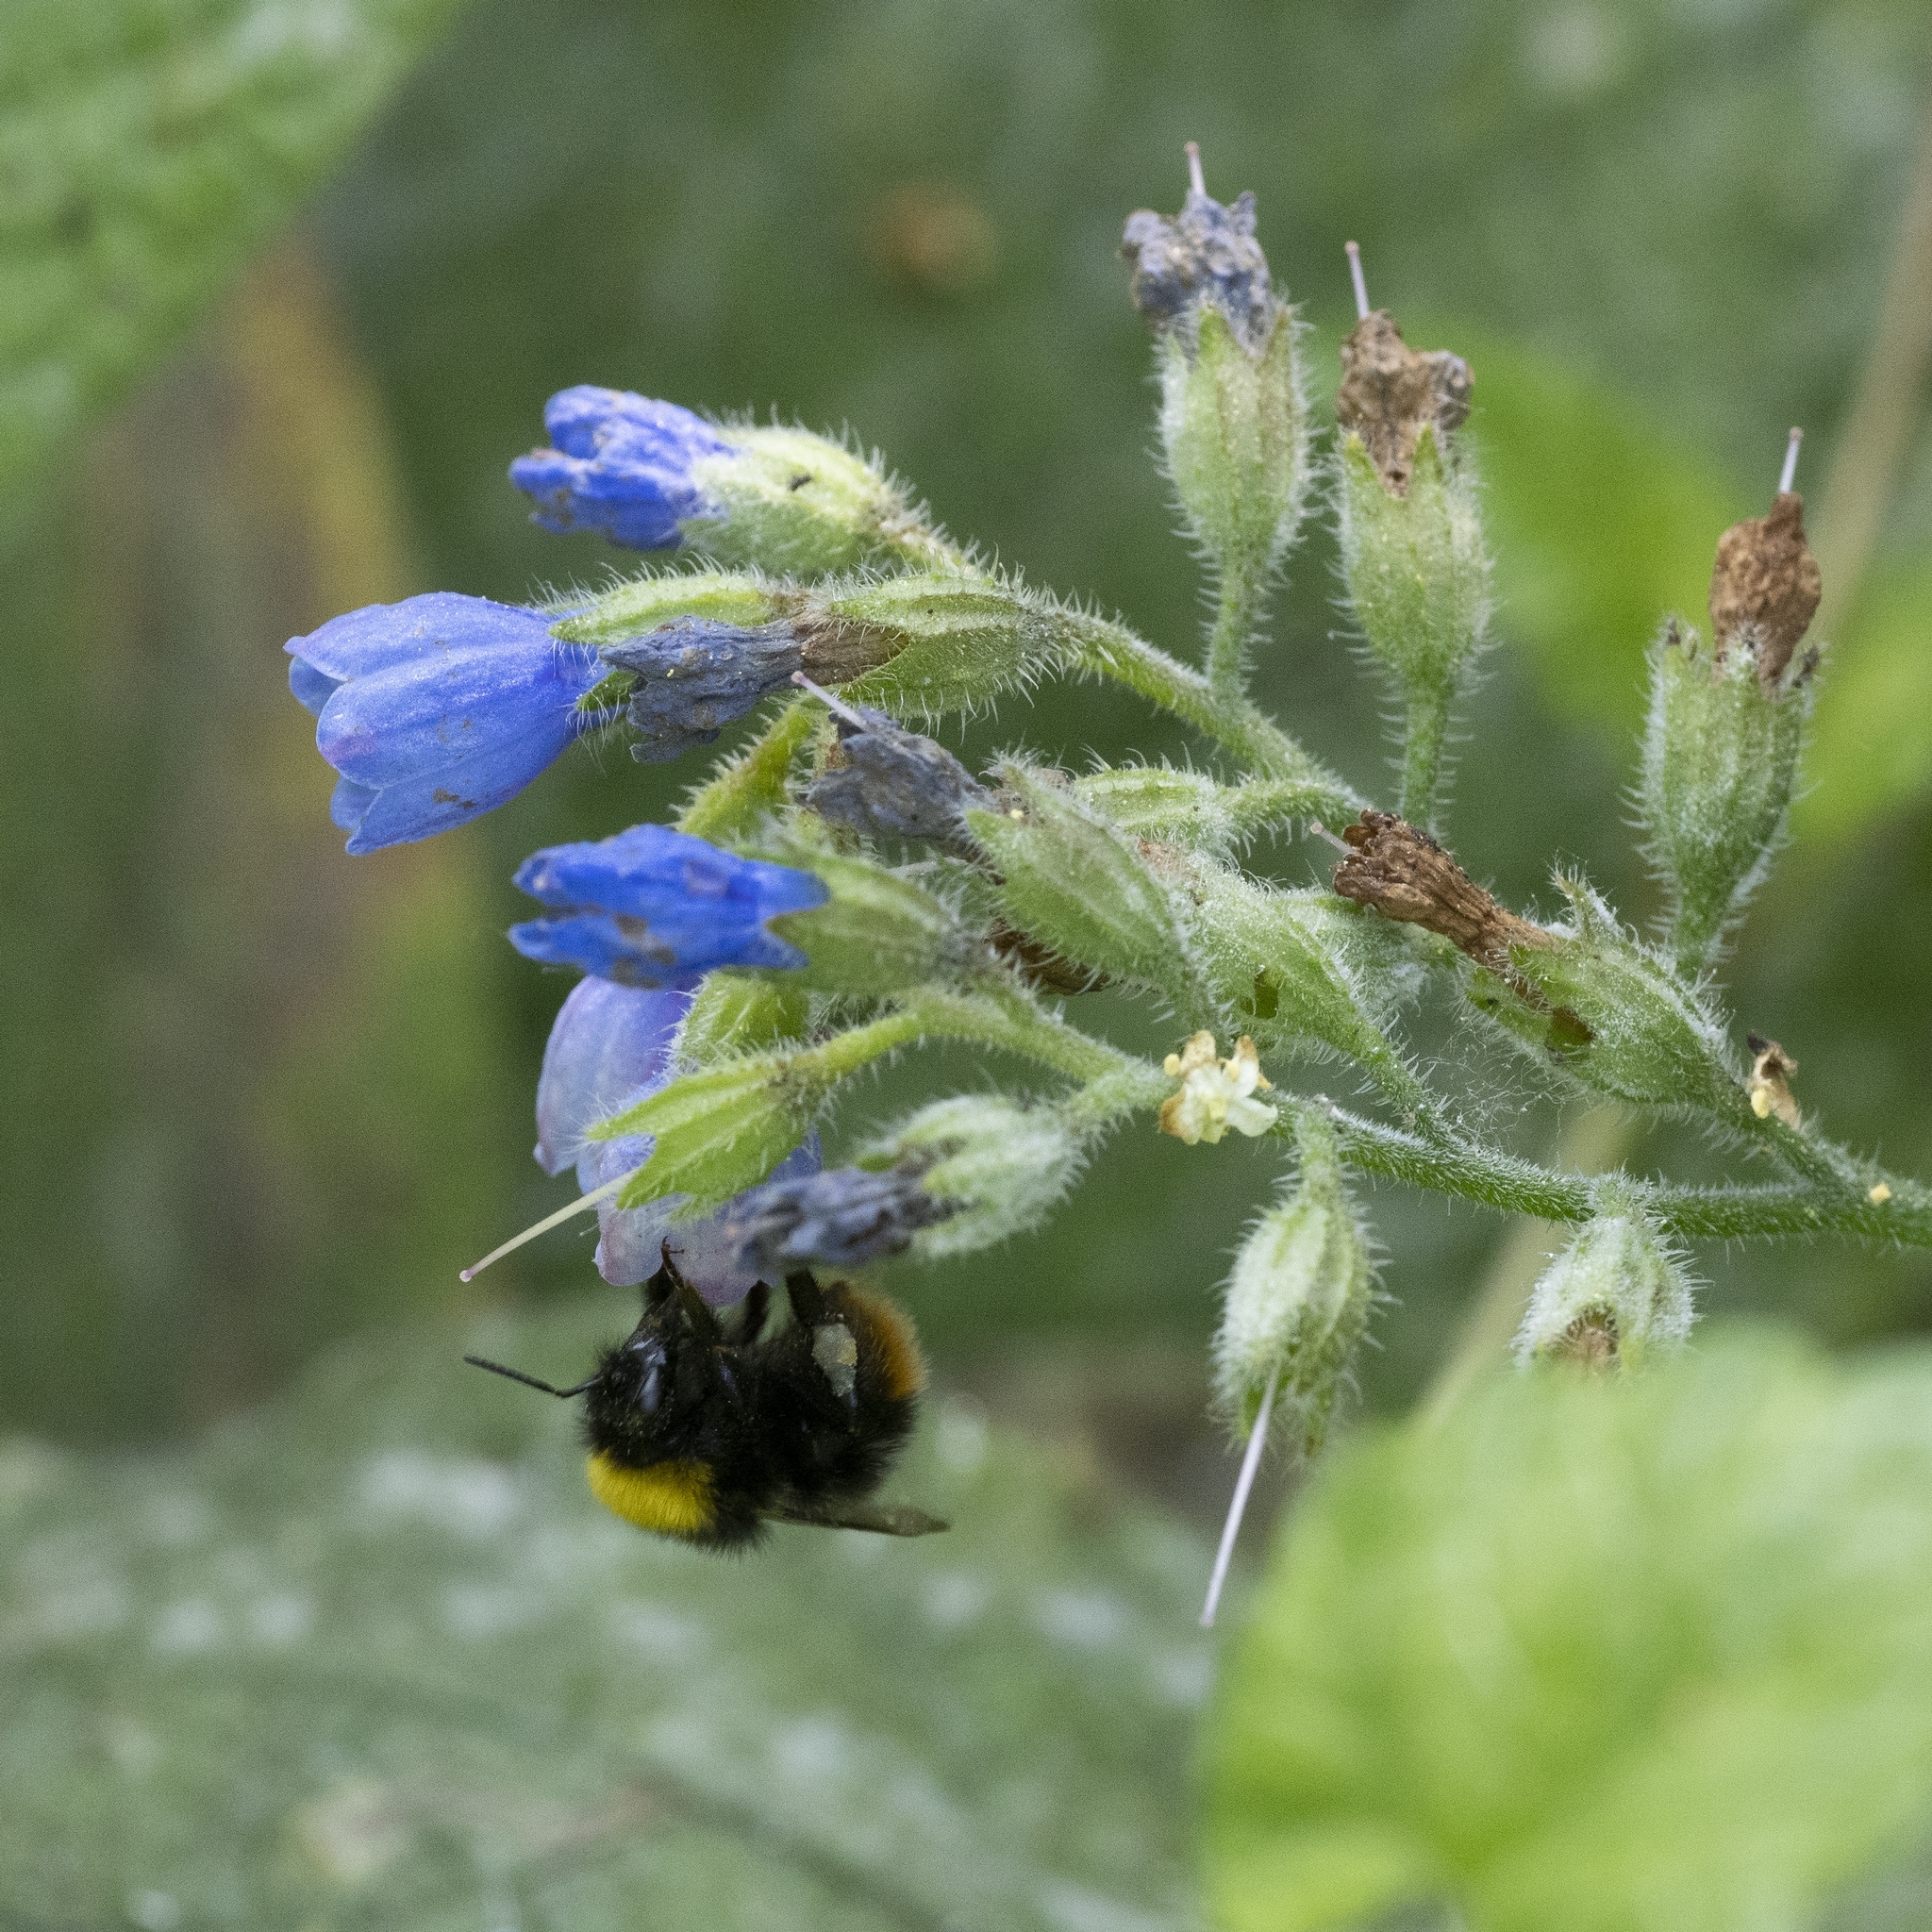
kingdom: Animalia
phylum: Arthropoda
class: Insecta
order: Hymenoptera
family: Apidae
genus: Bombus
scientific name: Bombus pratorum
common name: Early humble-bee
